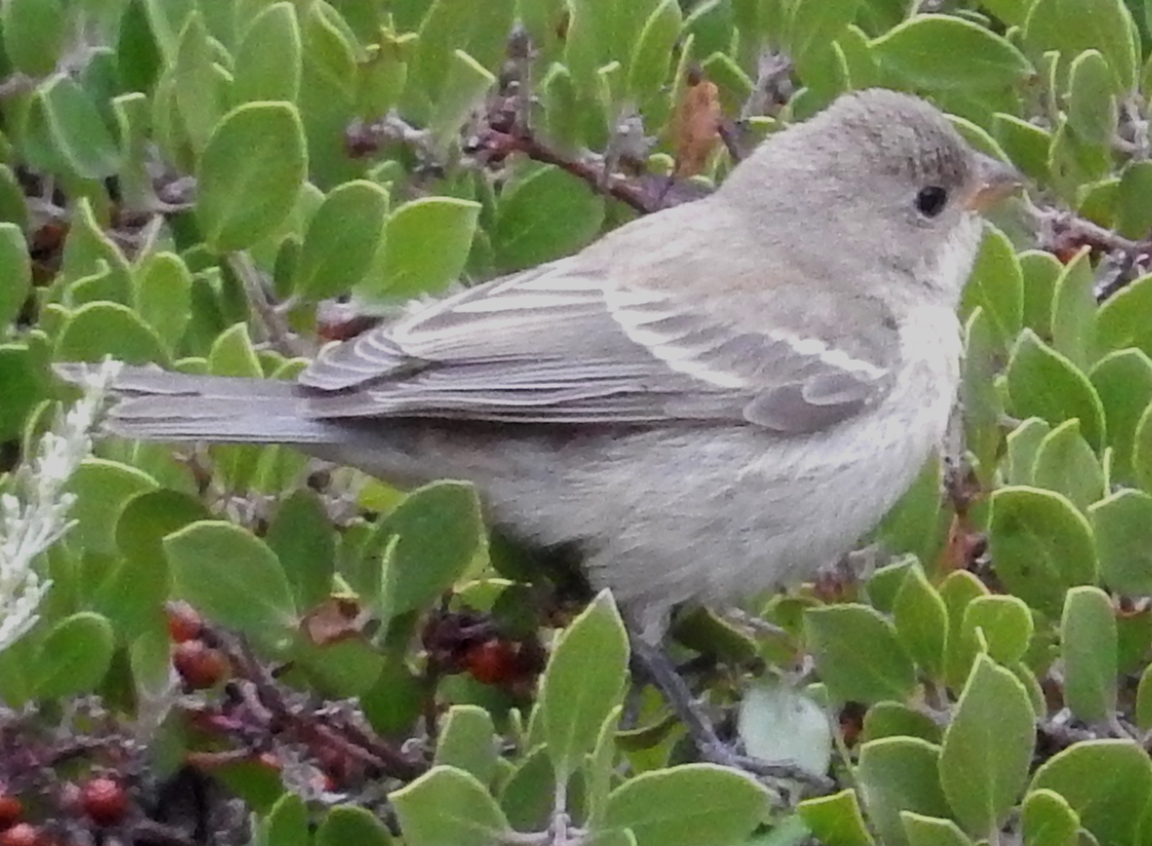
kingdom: Animalia
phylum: Chordata
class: Aves
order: Passeriformes
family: Cardinalidae
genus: Passerina
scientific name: Passerina amoena
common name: Lazuli bunting
